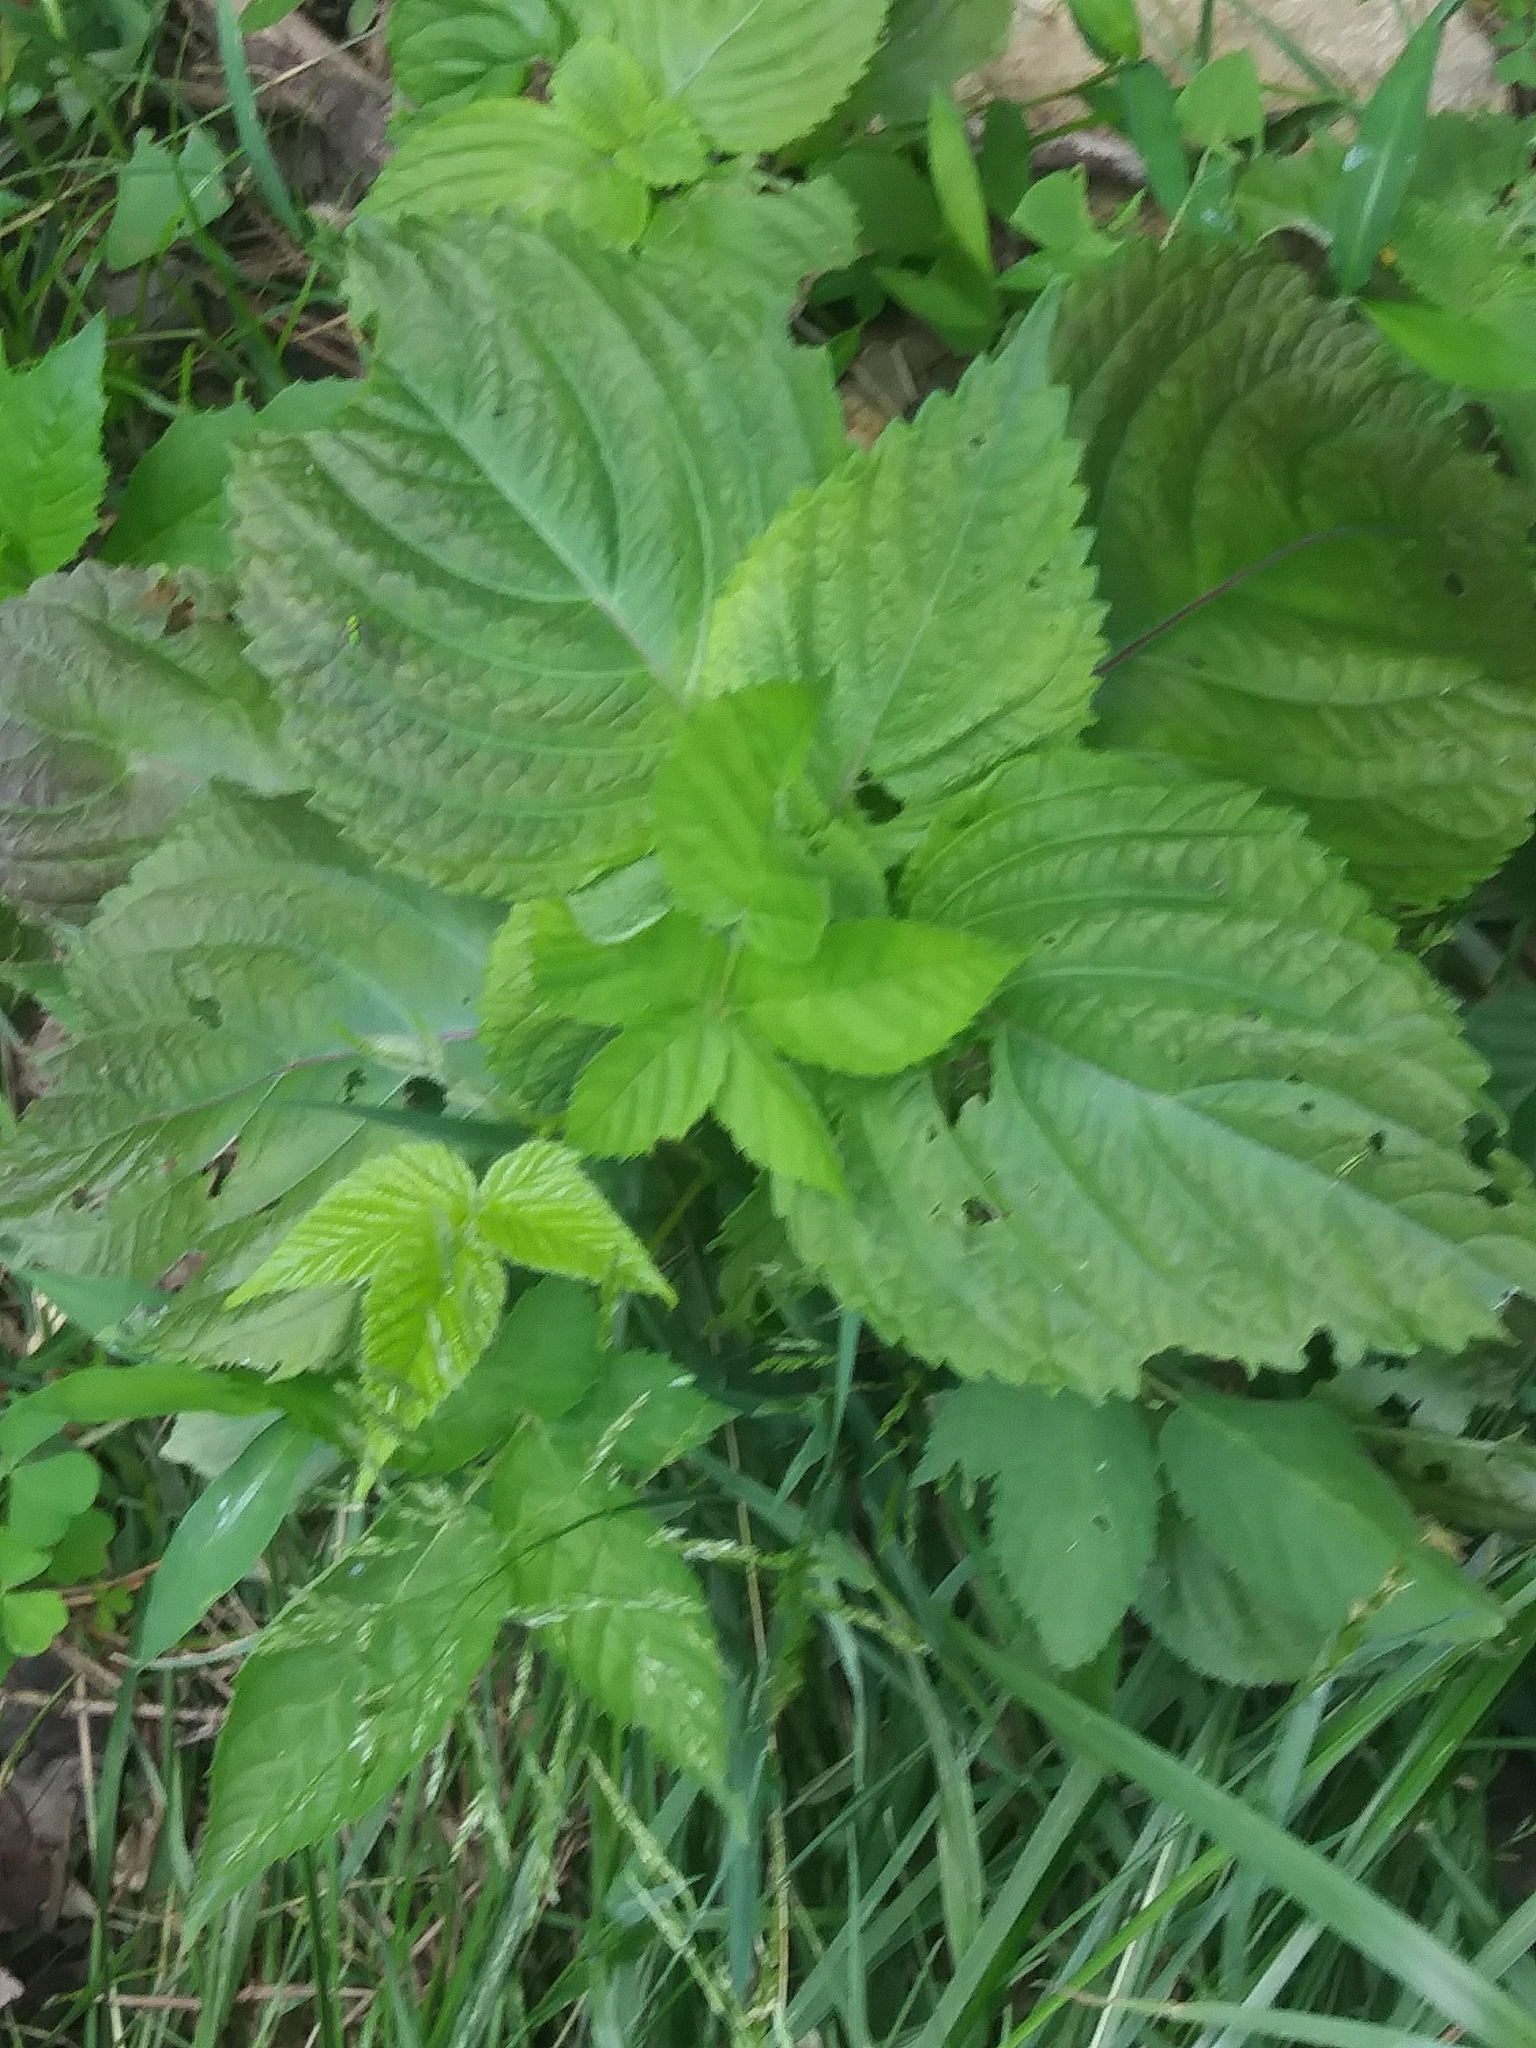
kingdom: Plantae
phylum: Tracheophyta
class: Magnoliopsida
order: Lamiales
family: Lamiaceae
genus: Perilla
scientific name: Perilla frutescens
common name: Perilla
